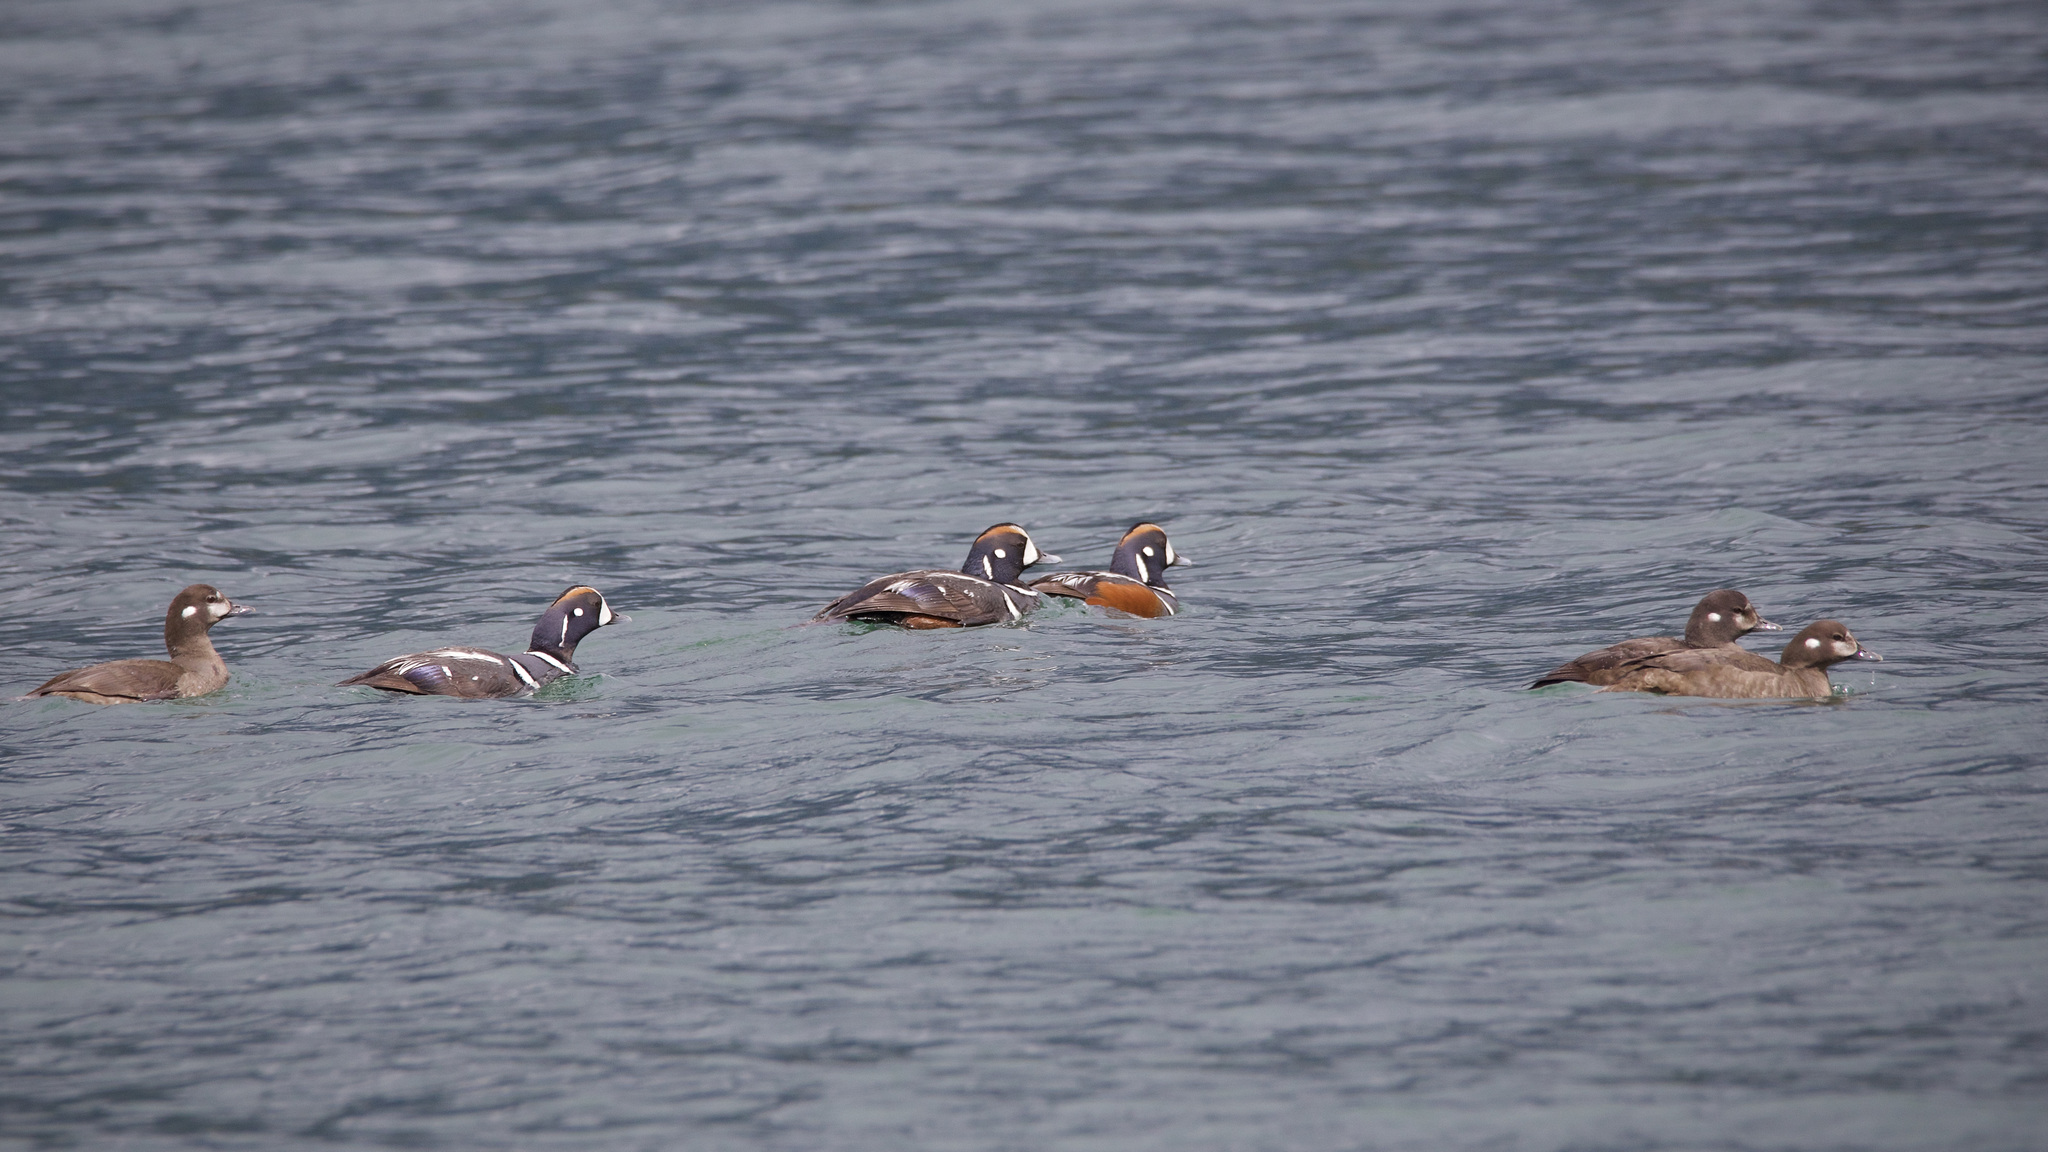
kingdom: Animalia
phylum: Chordata
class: Aves
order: Anseriformes
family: Anatidae
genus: Histrionicus
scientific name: Histrionicus histrionicus
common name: Harlequin duck
